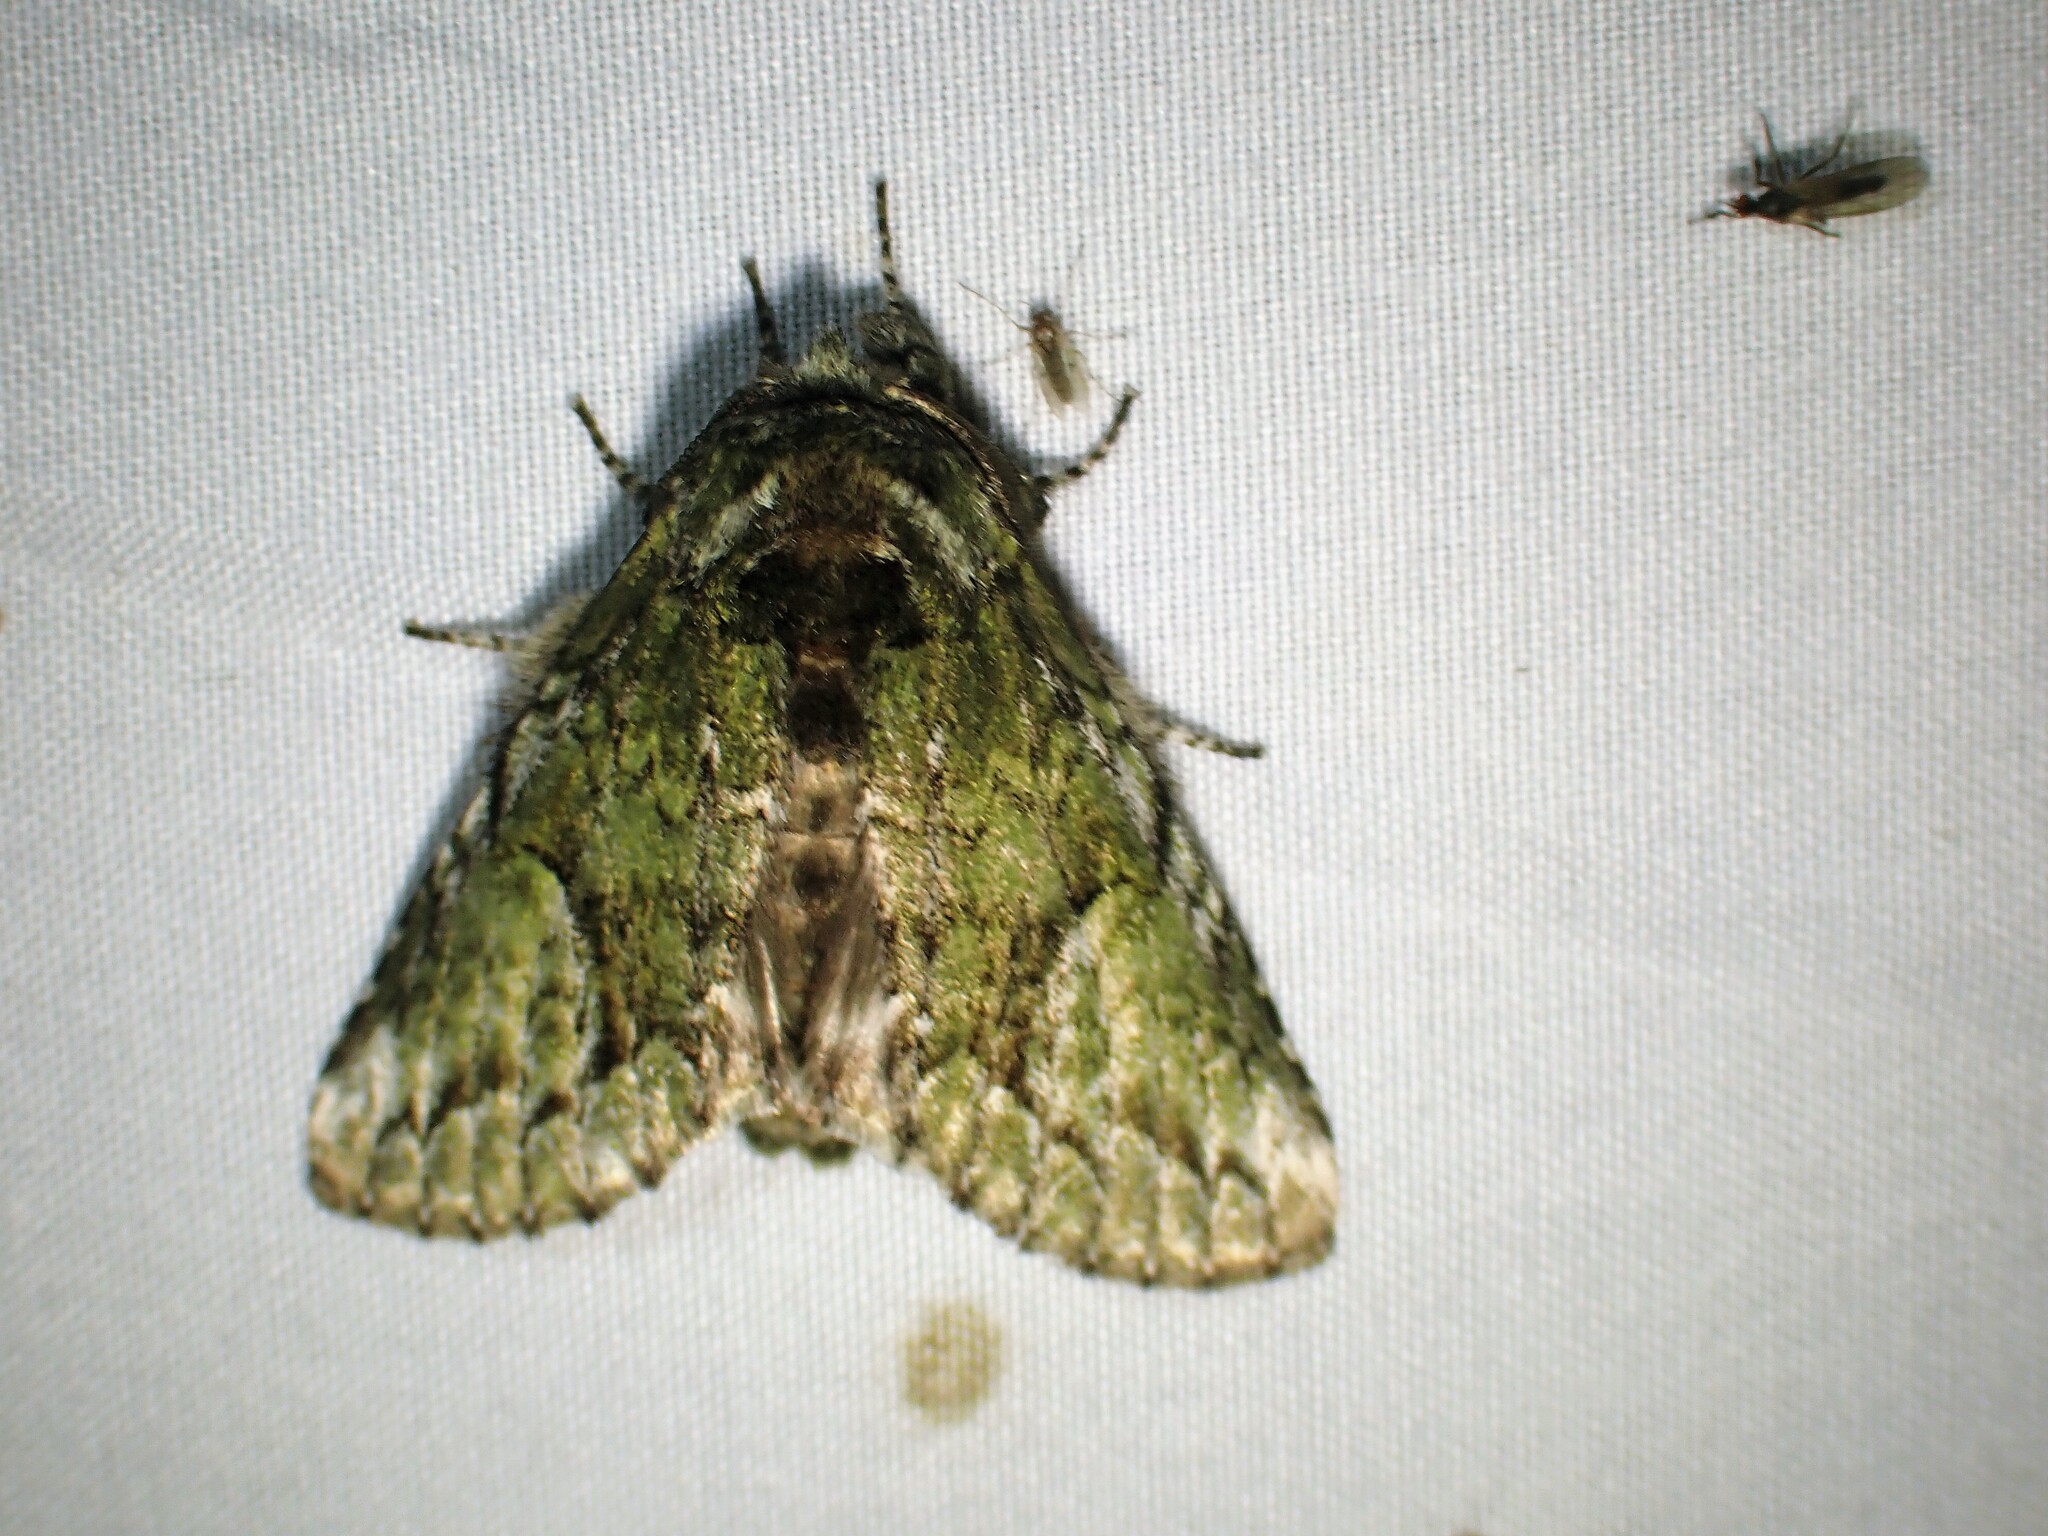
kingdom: Animalia
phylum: Arthropoda
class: Insecta
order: Lepidoptera
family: Notodontidae
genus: Heterocampa
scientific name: Heterocampa
